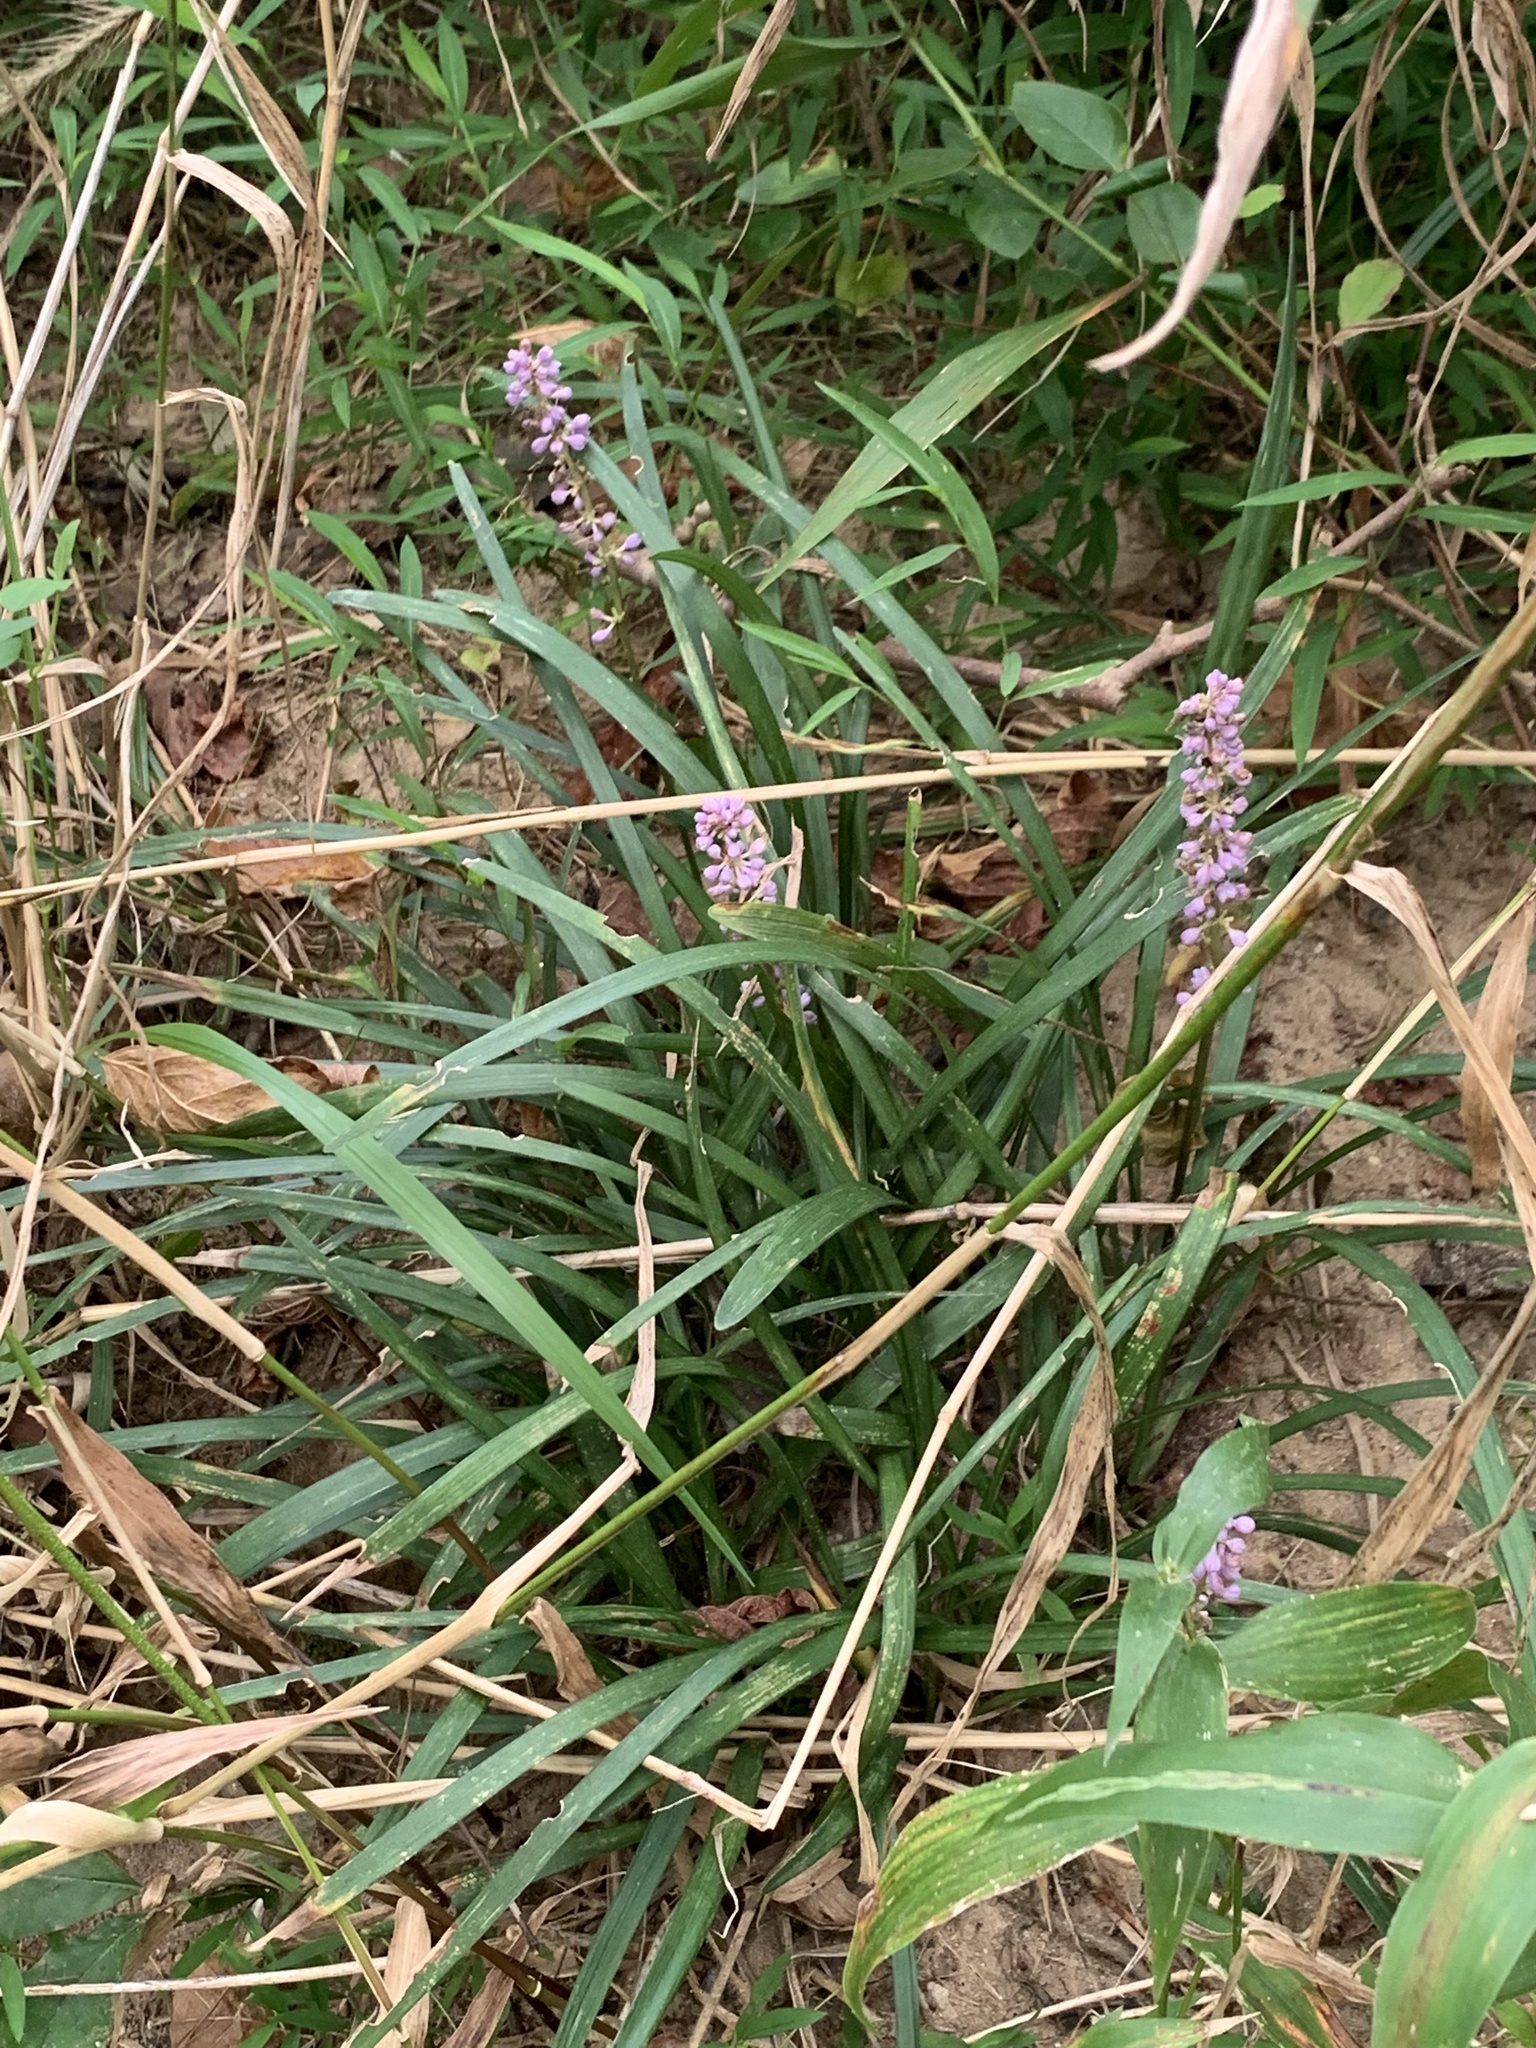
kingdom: Plantae
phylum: Tracheophyta
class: Liliopsida
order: Asparagales
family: Asparagaceae
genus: Liriope
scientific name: Liriope muscari
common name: Big blue lilyturf
